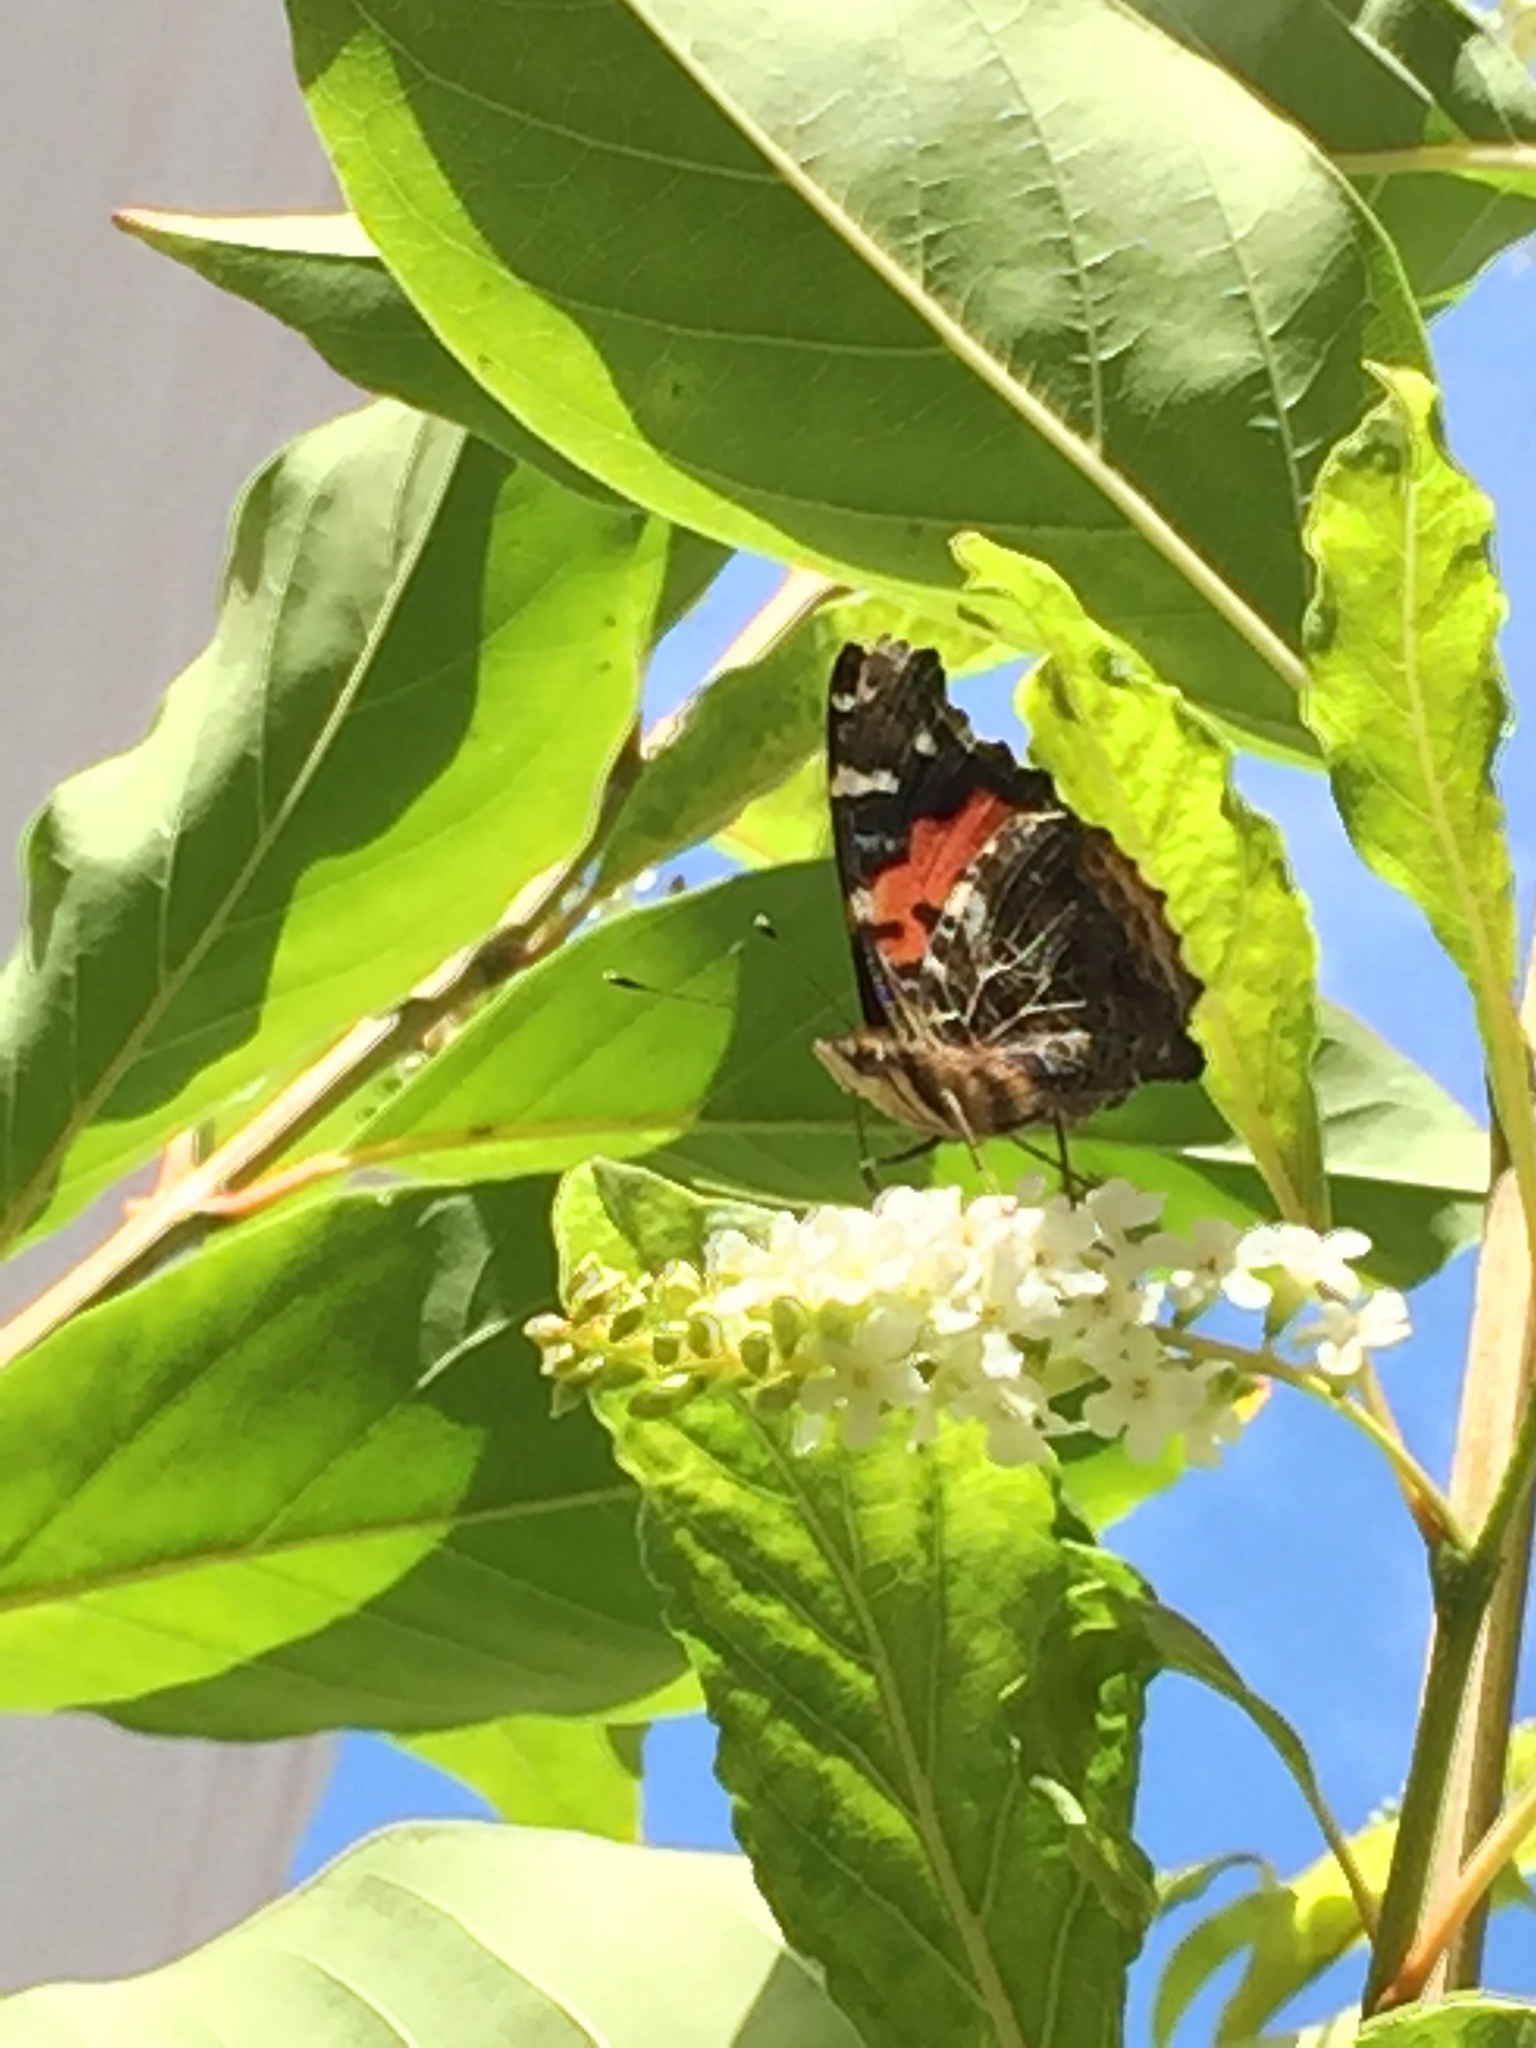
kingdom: Animalia
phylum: Arthropoda
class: Insecta
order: Lepidoptera
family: Nymphalidae
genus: Vanessa
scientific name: Vanessa vulcania
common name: Canary red admiral
